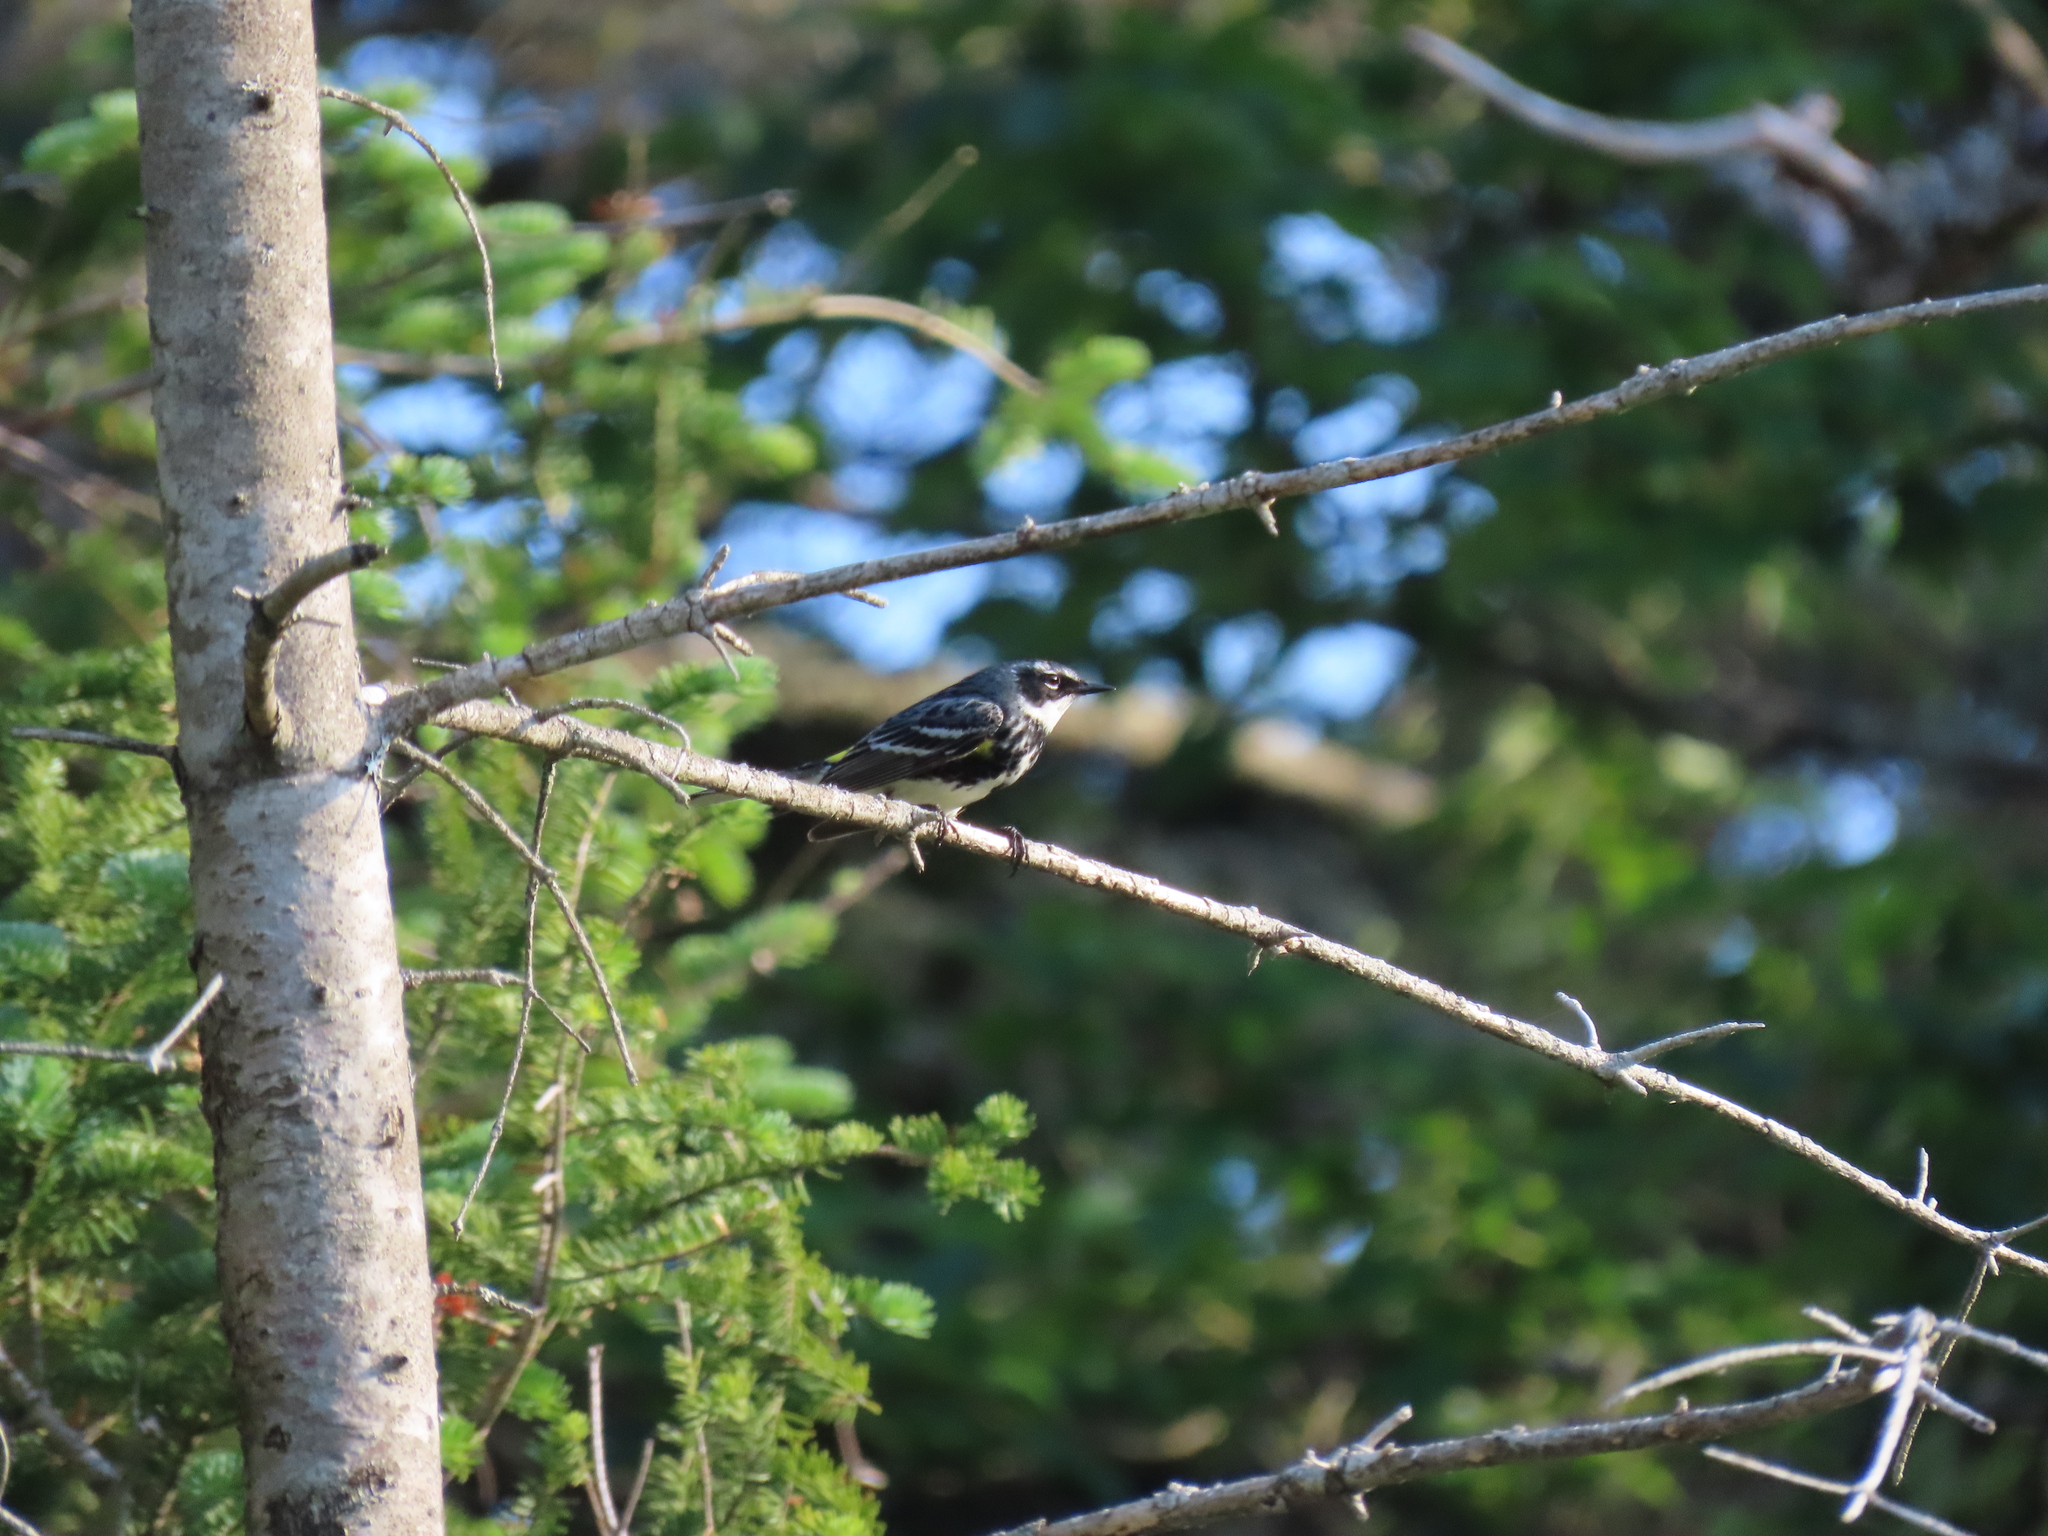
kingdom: Animalia
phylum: Chordata
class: Aves
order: Passeriformes
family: Parulidae
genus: Setophaga
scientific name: Setophaga coronata
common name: Myrtle warbler
